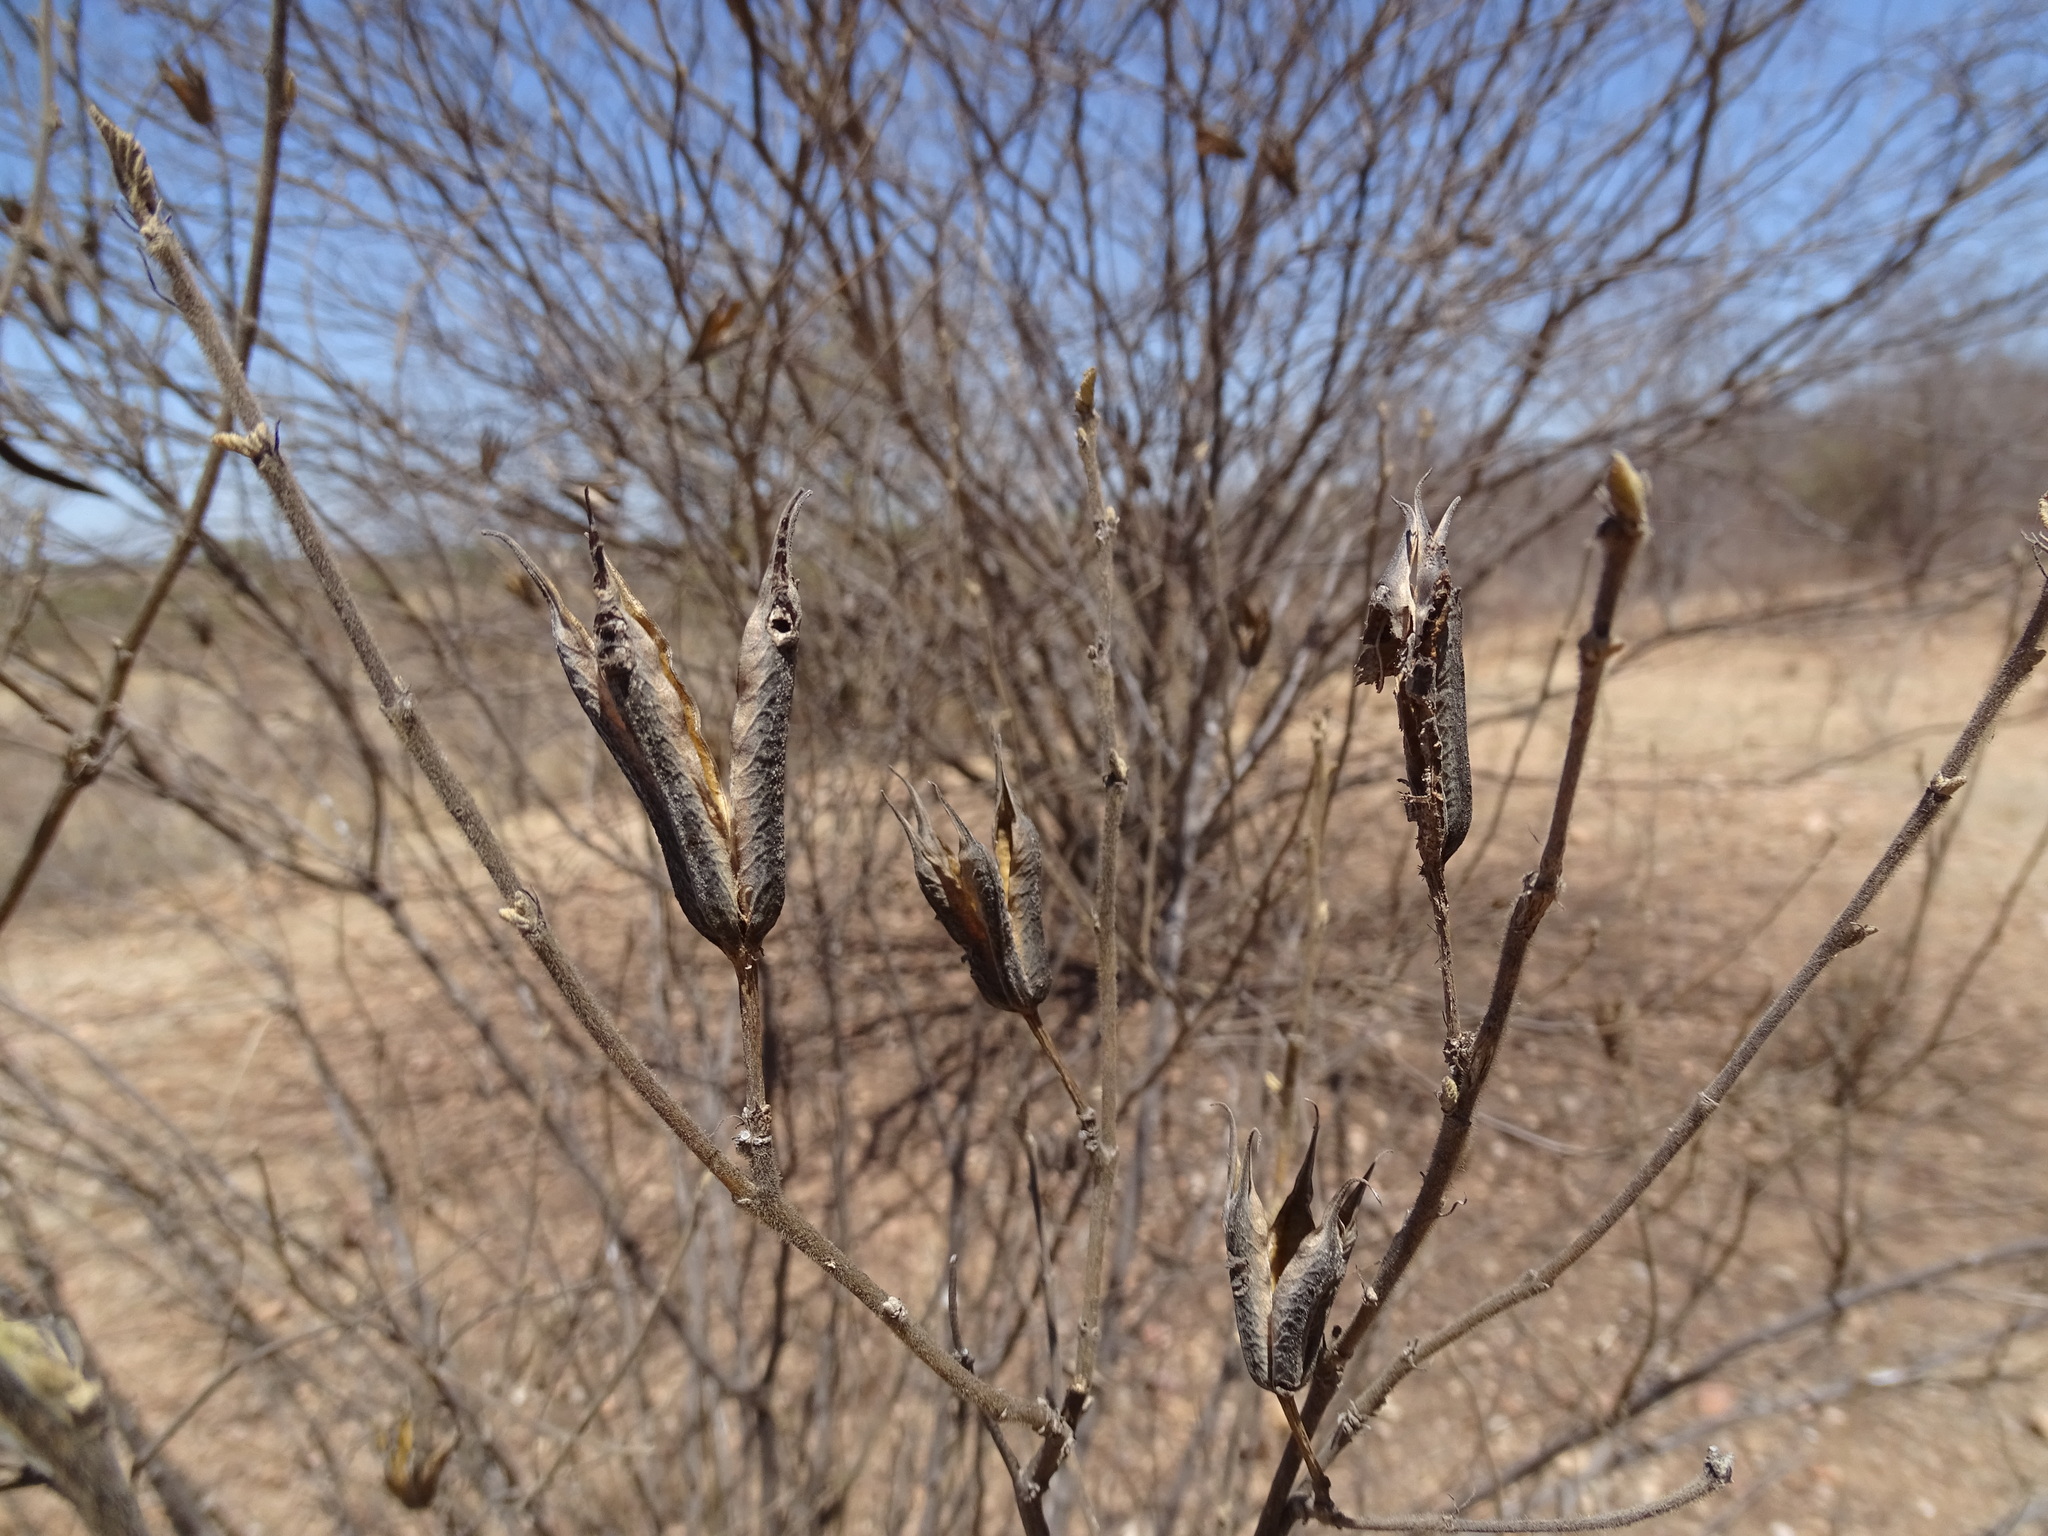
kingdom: Plantae
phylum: Tracheophyta
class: Magnoliopsida
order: Malvales
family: Malvaceae
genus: Helicteres
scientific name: Helicteres vegae
